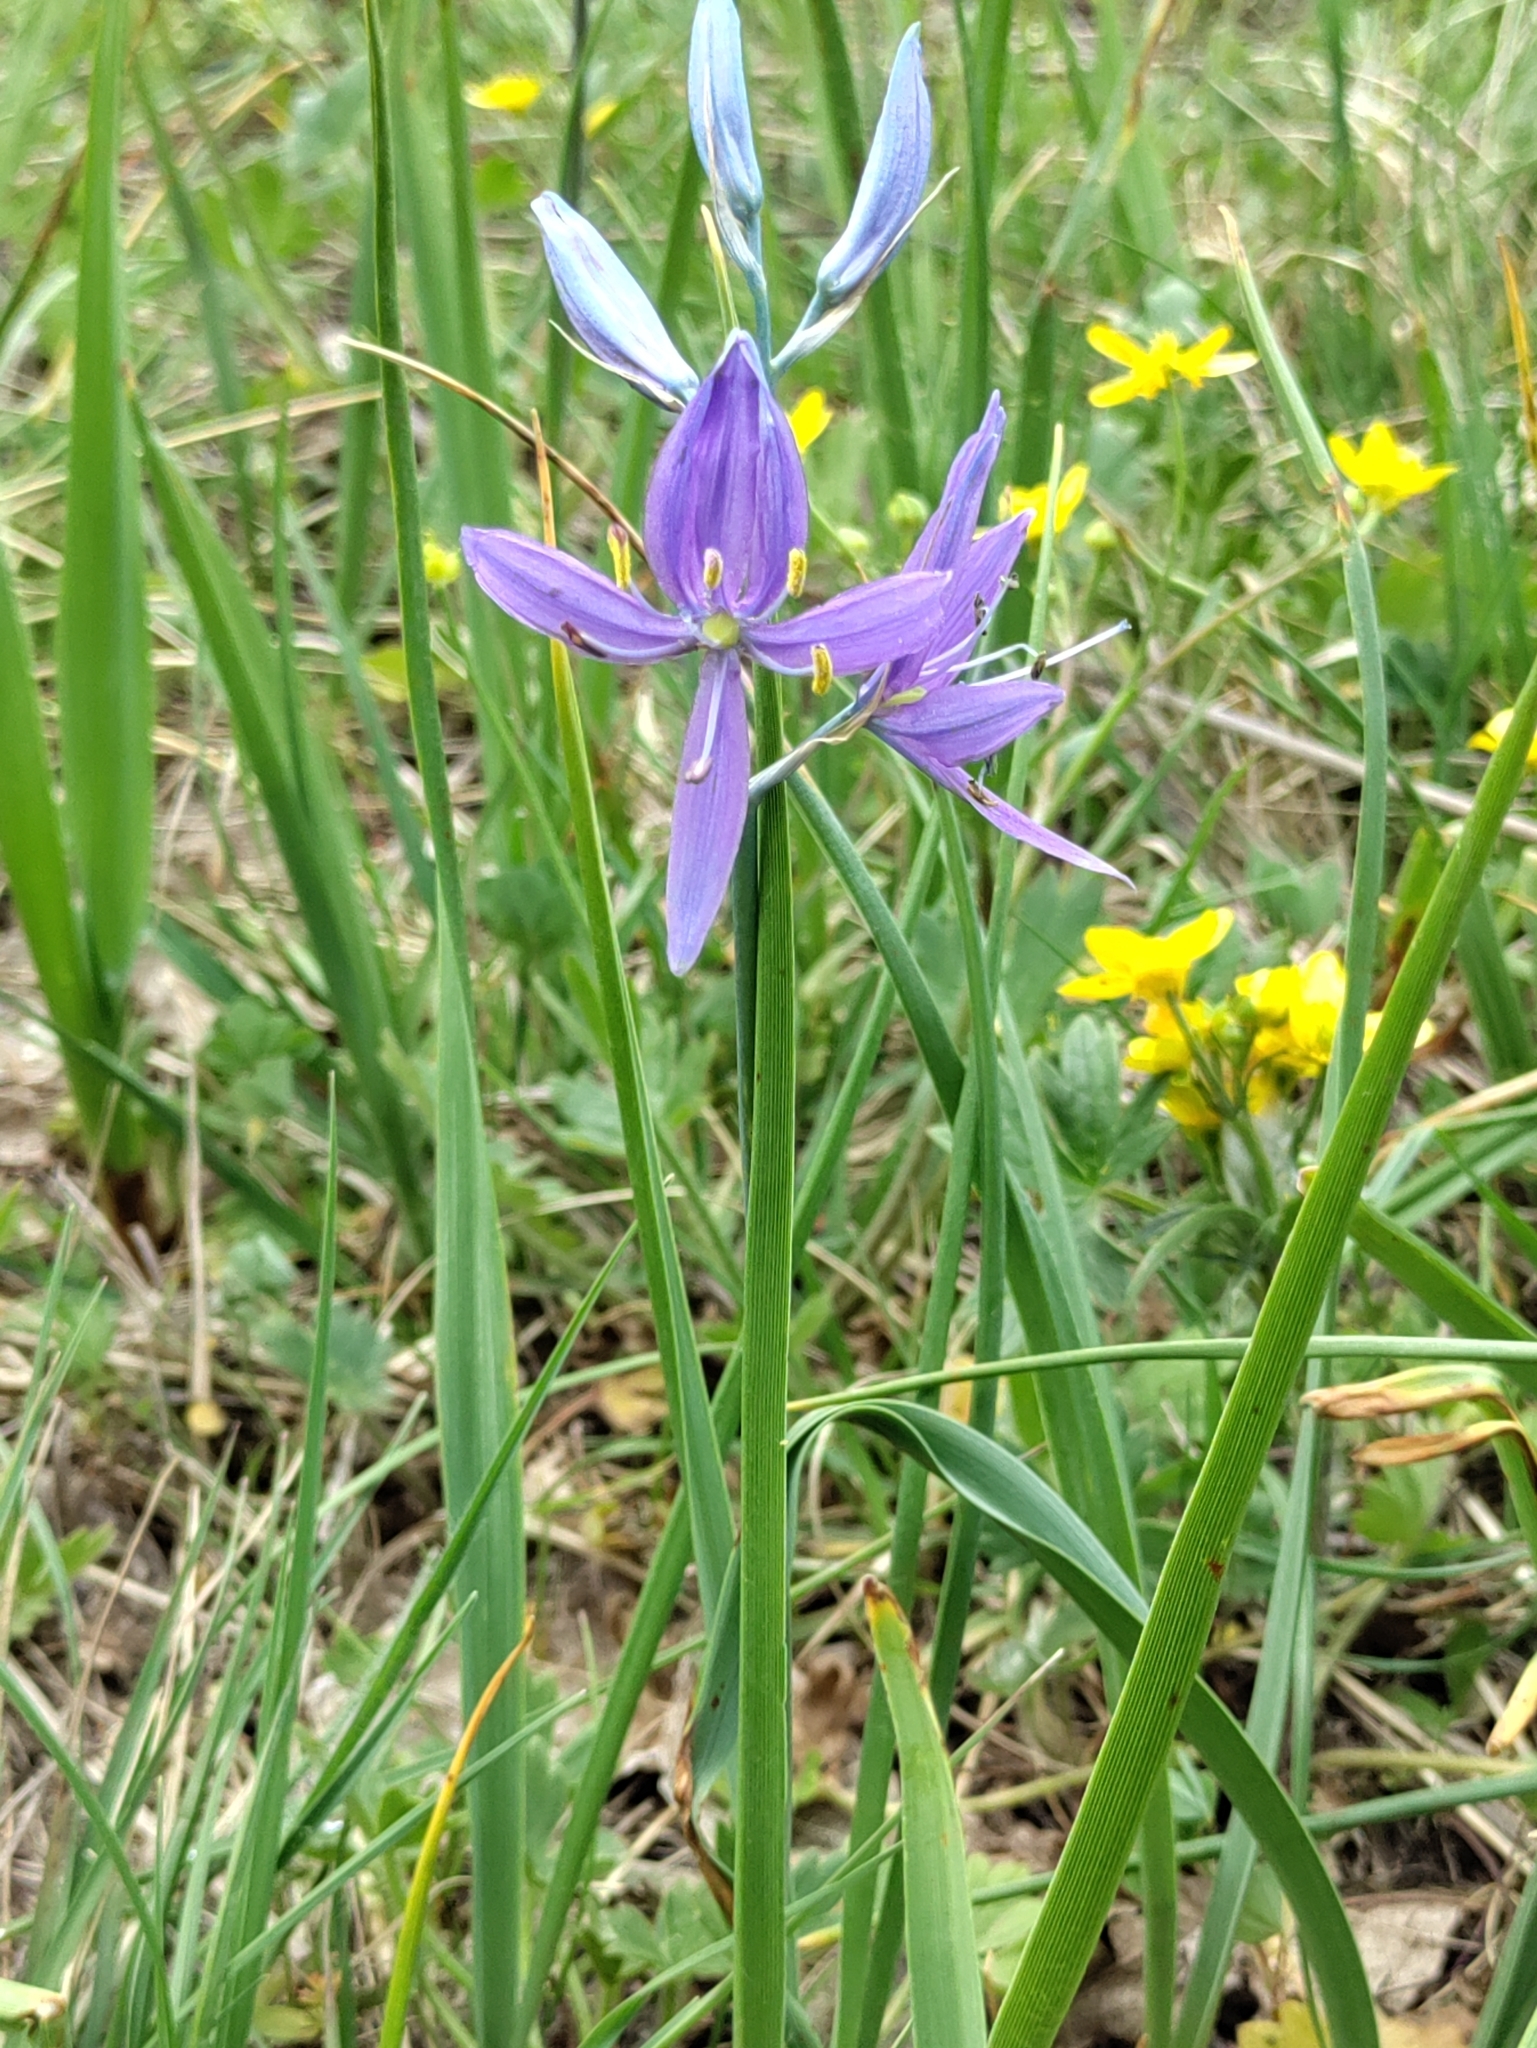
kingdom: Plantae
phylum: Tracheophyta
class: Liliopsida
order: Asparagales
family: Asparagaceae
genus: Camassia
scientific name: Camassia quamash
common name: Common camas
